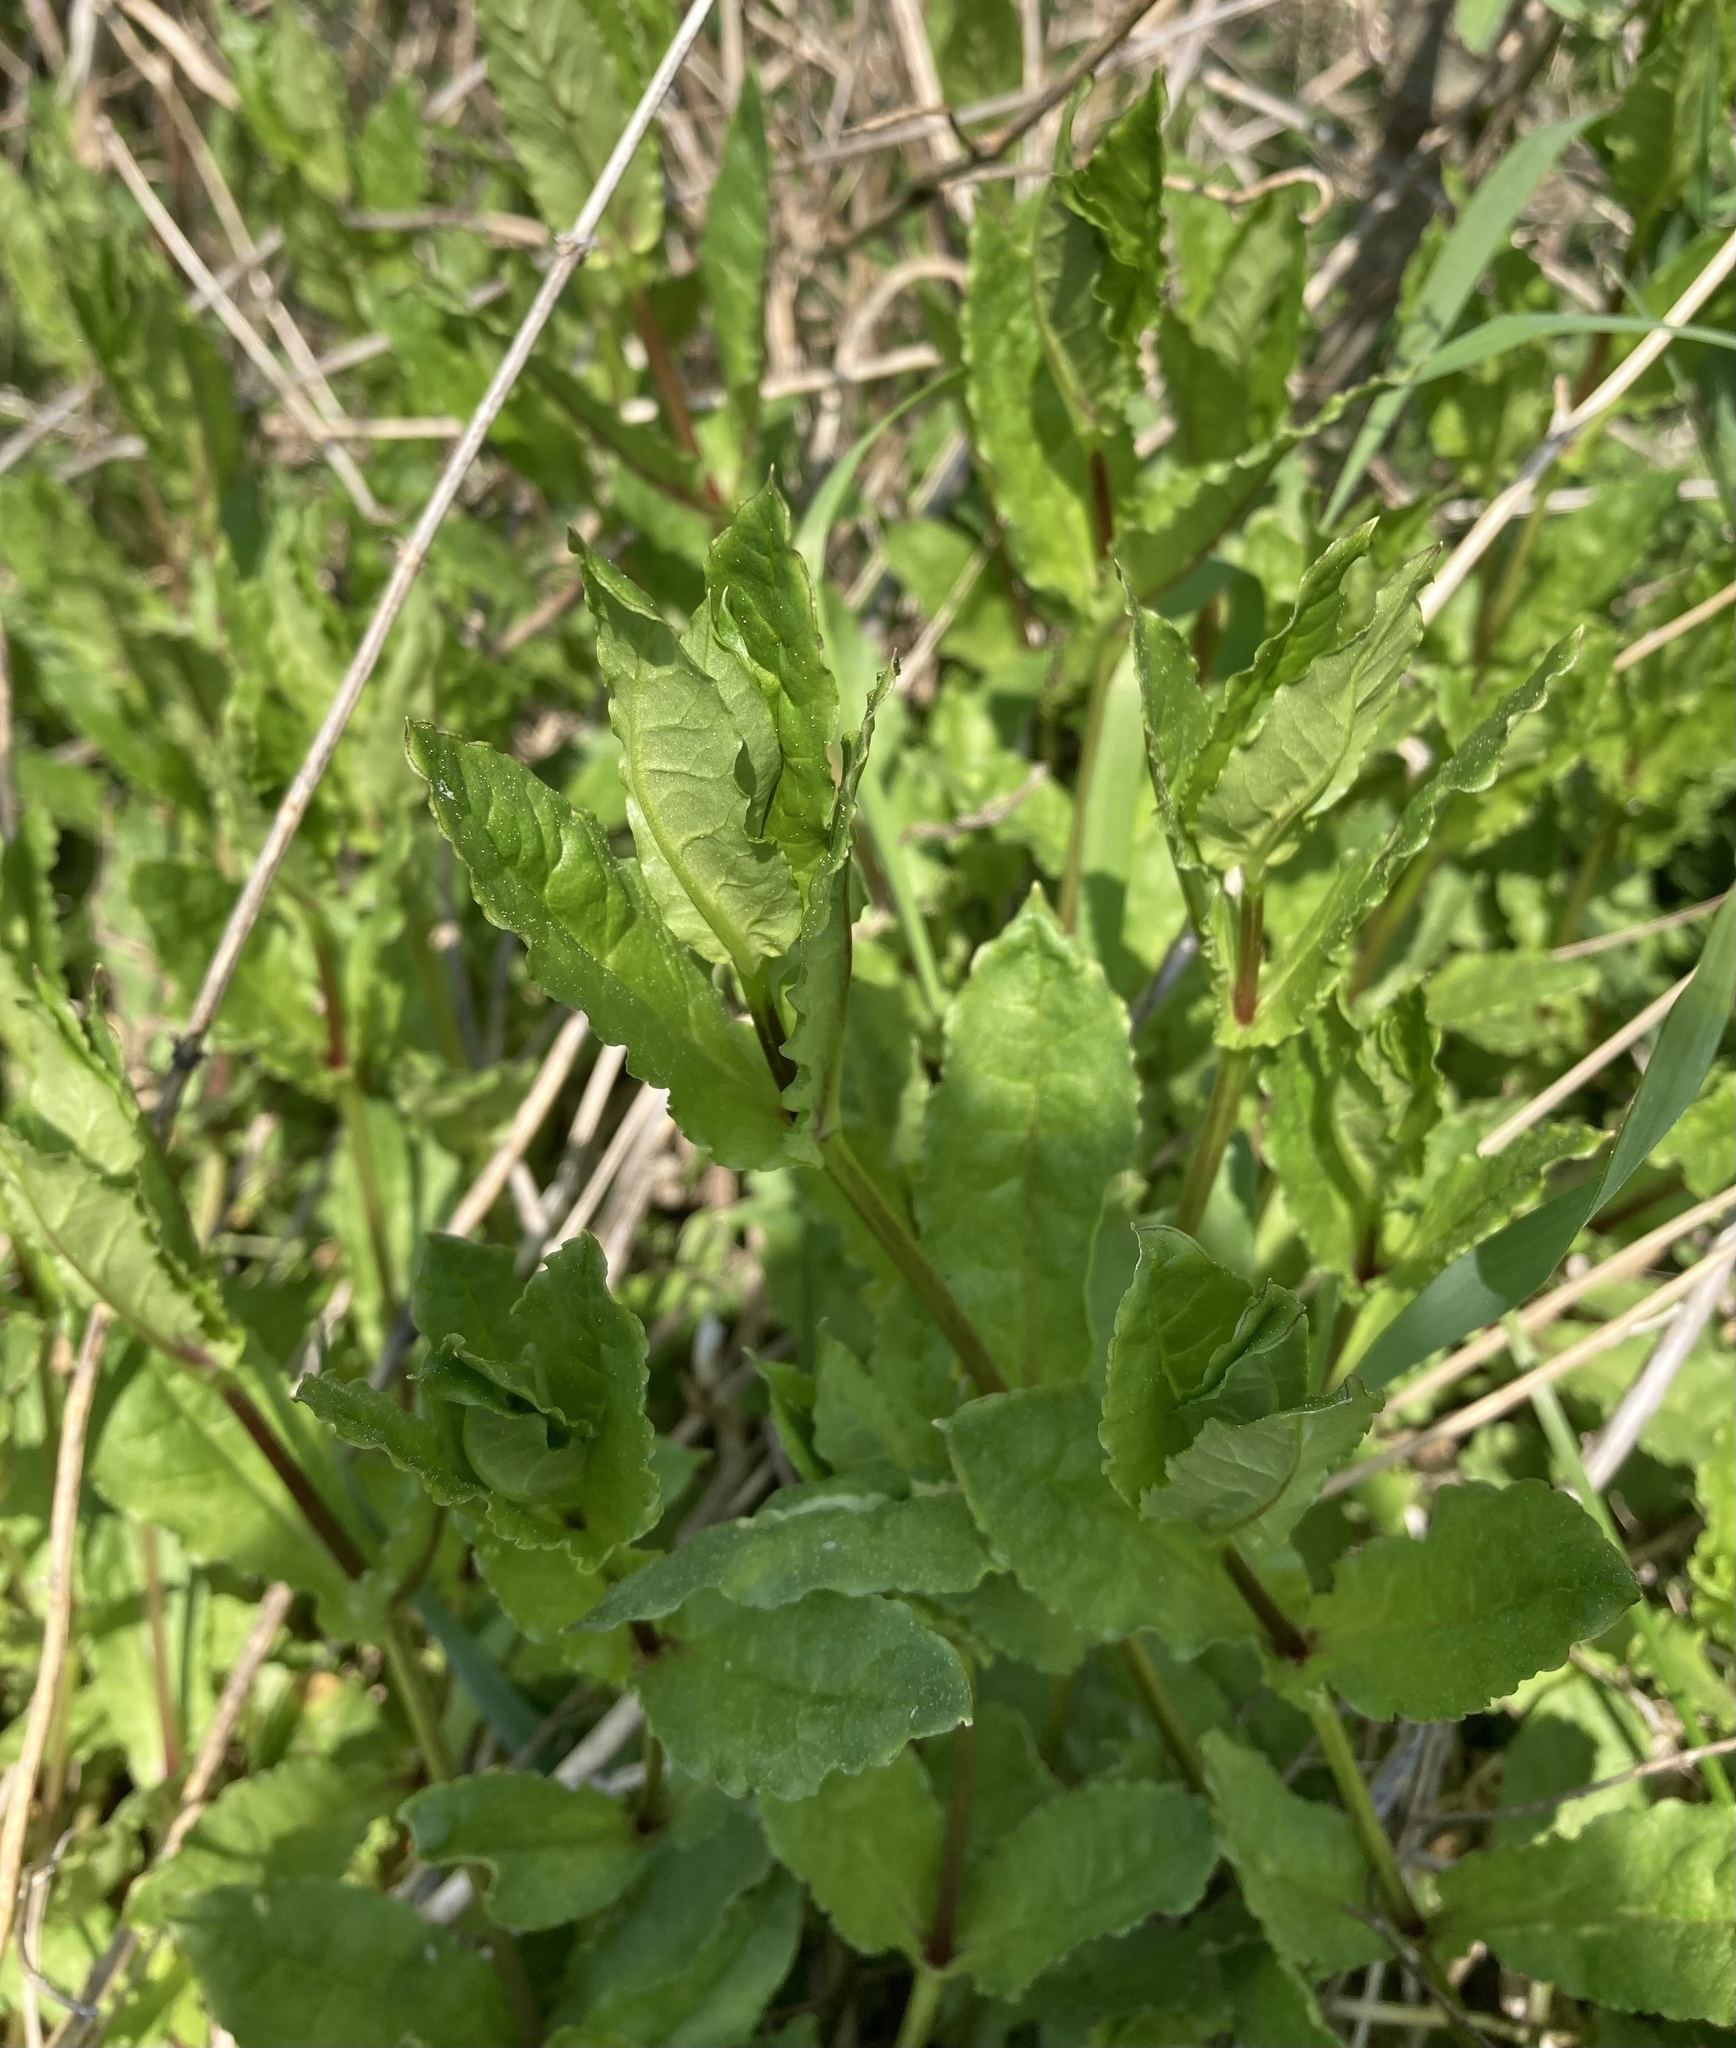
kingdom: Plantae
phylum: Tracheophyta
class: Magnoliopsida
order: Caryophyllales
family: Caryophyllaceae
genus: Stellaria
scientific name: Stellaria aquatica
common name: Water chickweed
